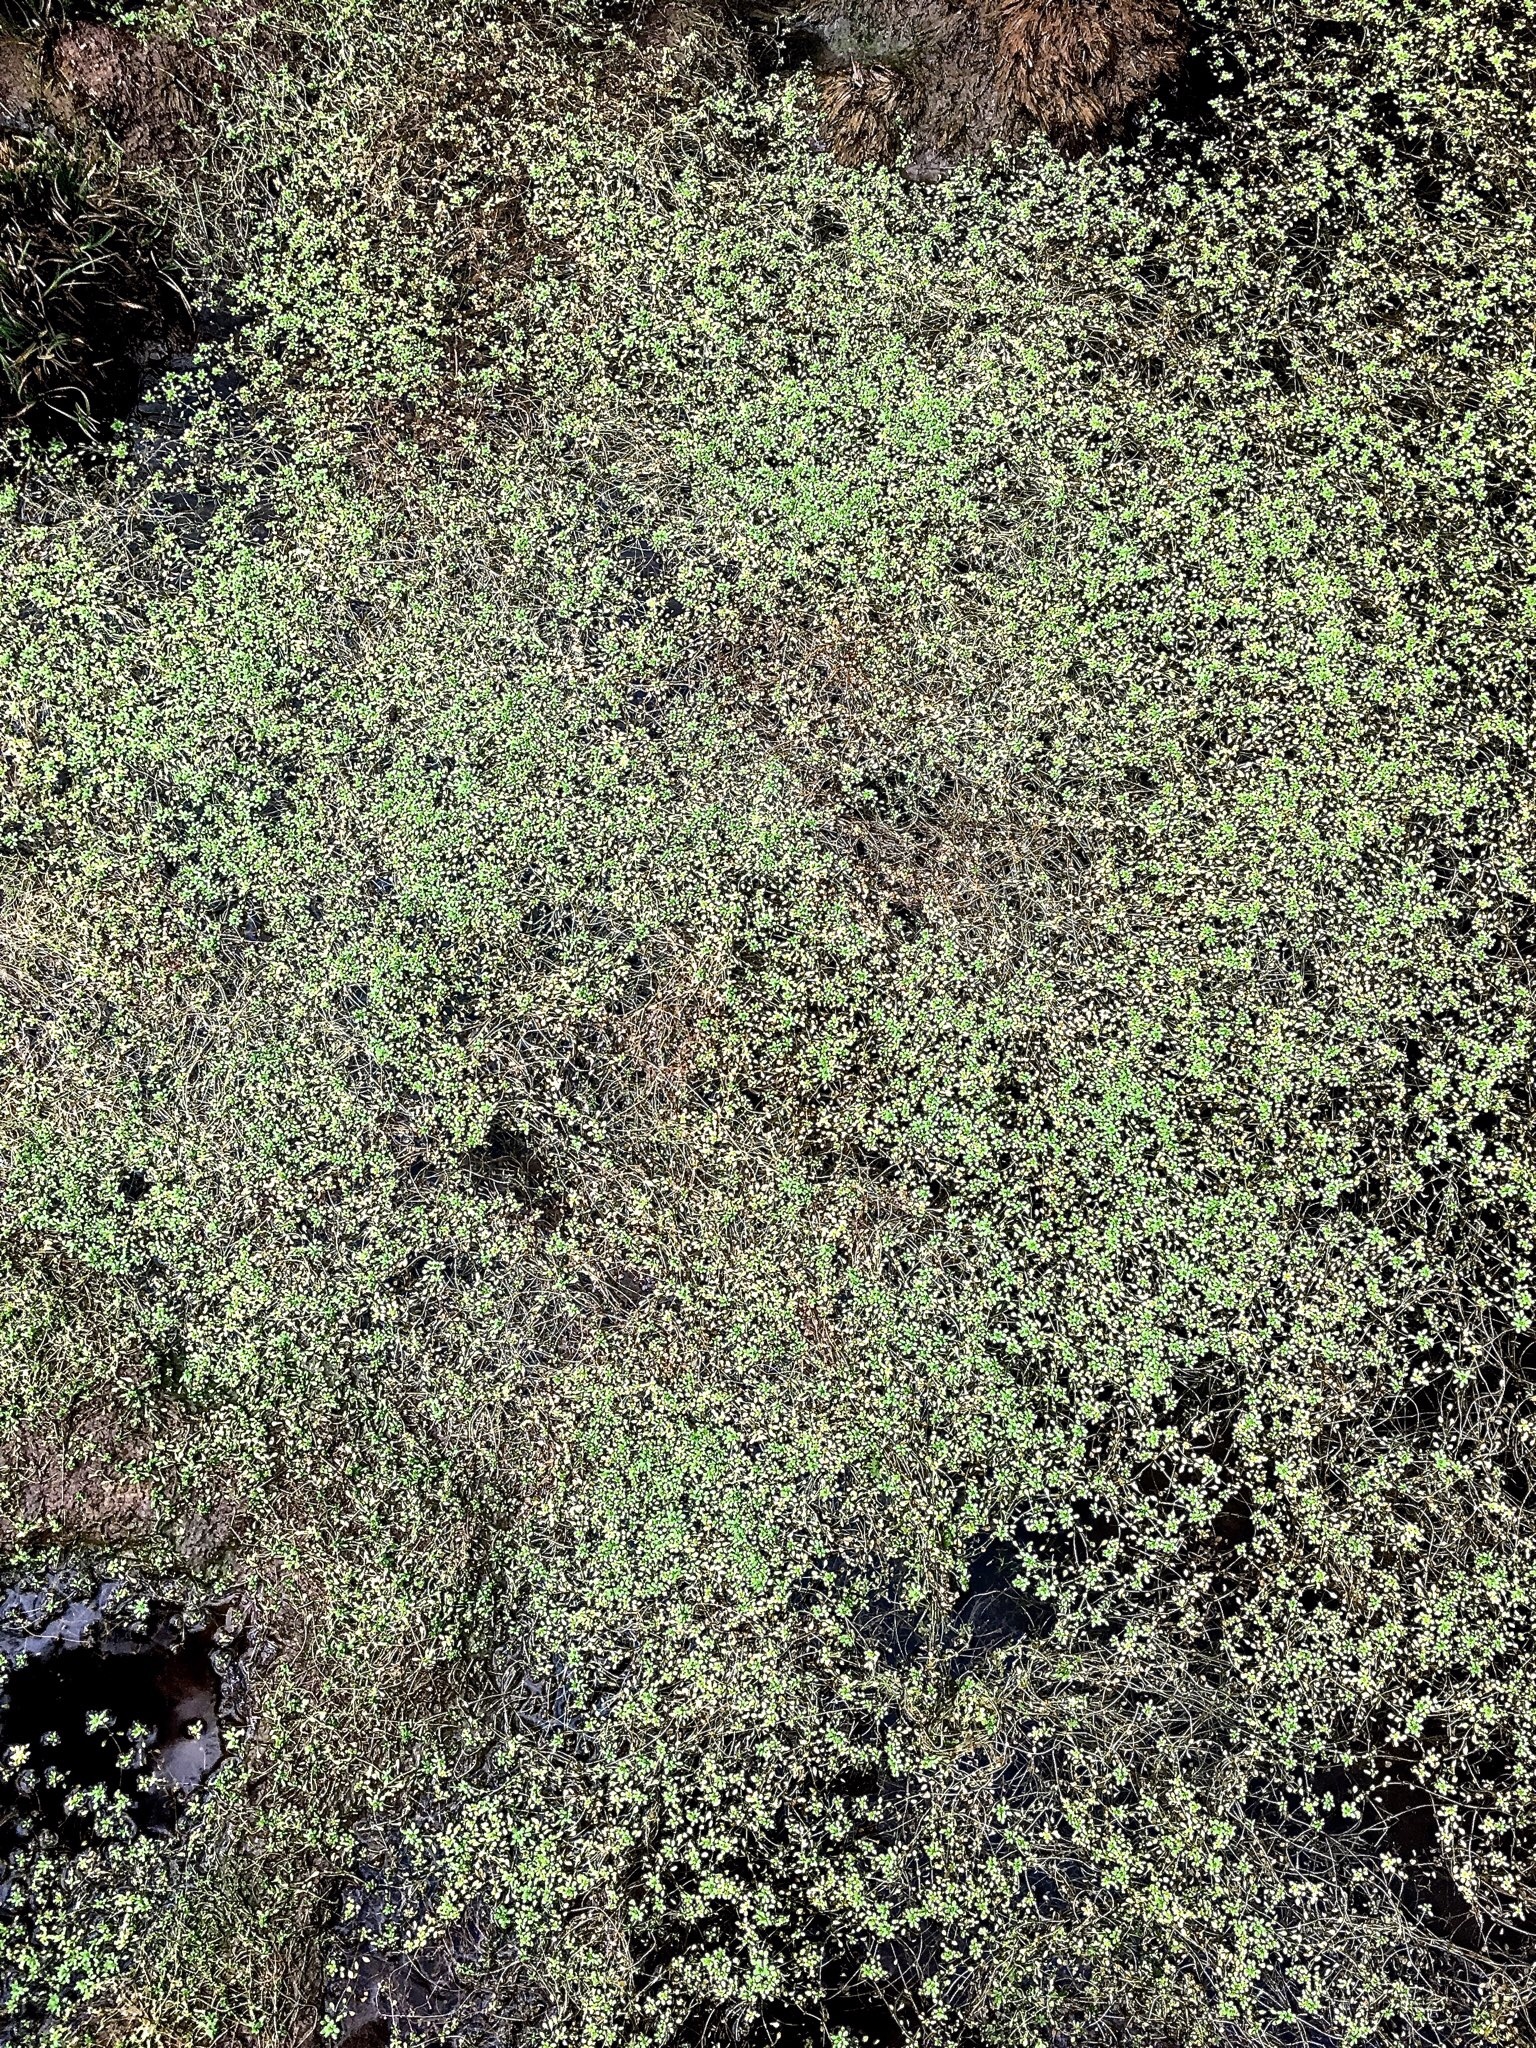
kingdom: Plantae
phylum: Tracheophyta
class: Magnoliopsida
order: Lamiales
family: Plantaginaceae
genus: Callitriche
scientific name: Callitriche palustris
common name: Spring water-starwort
